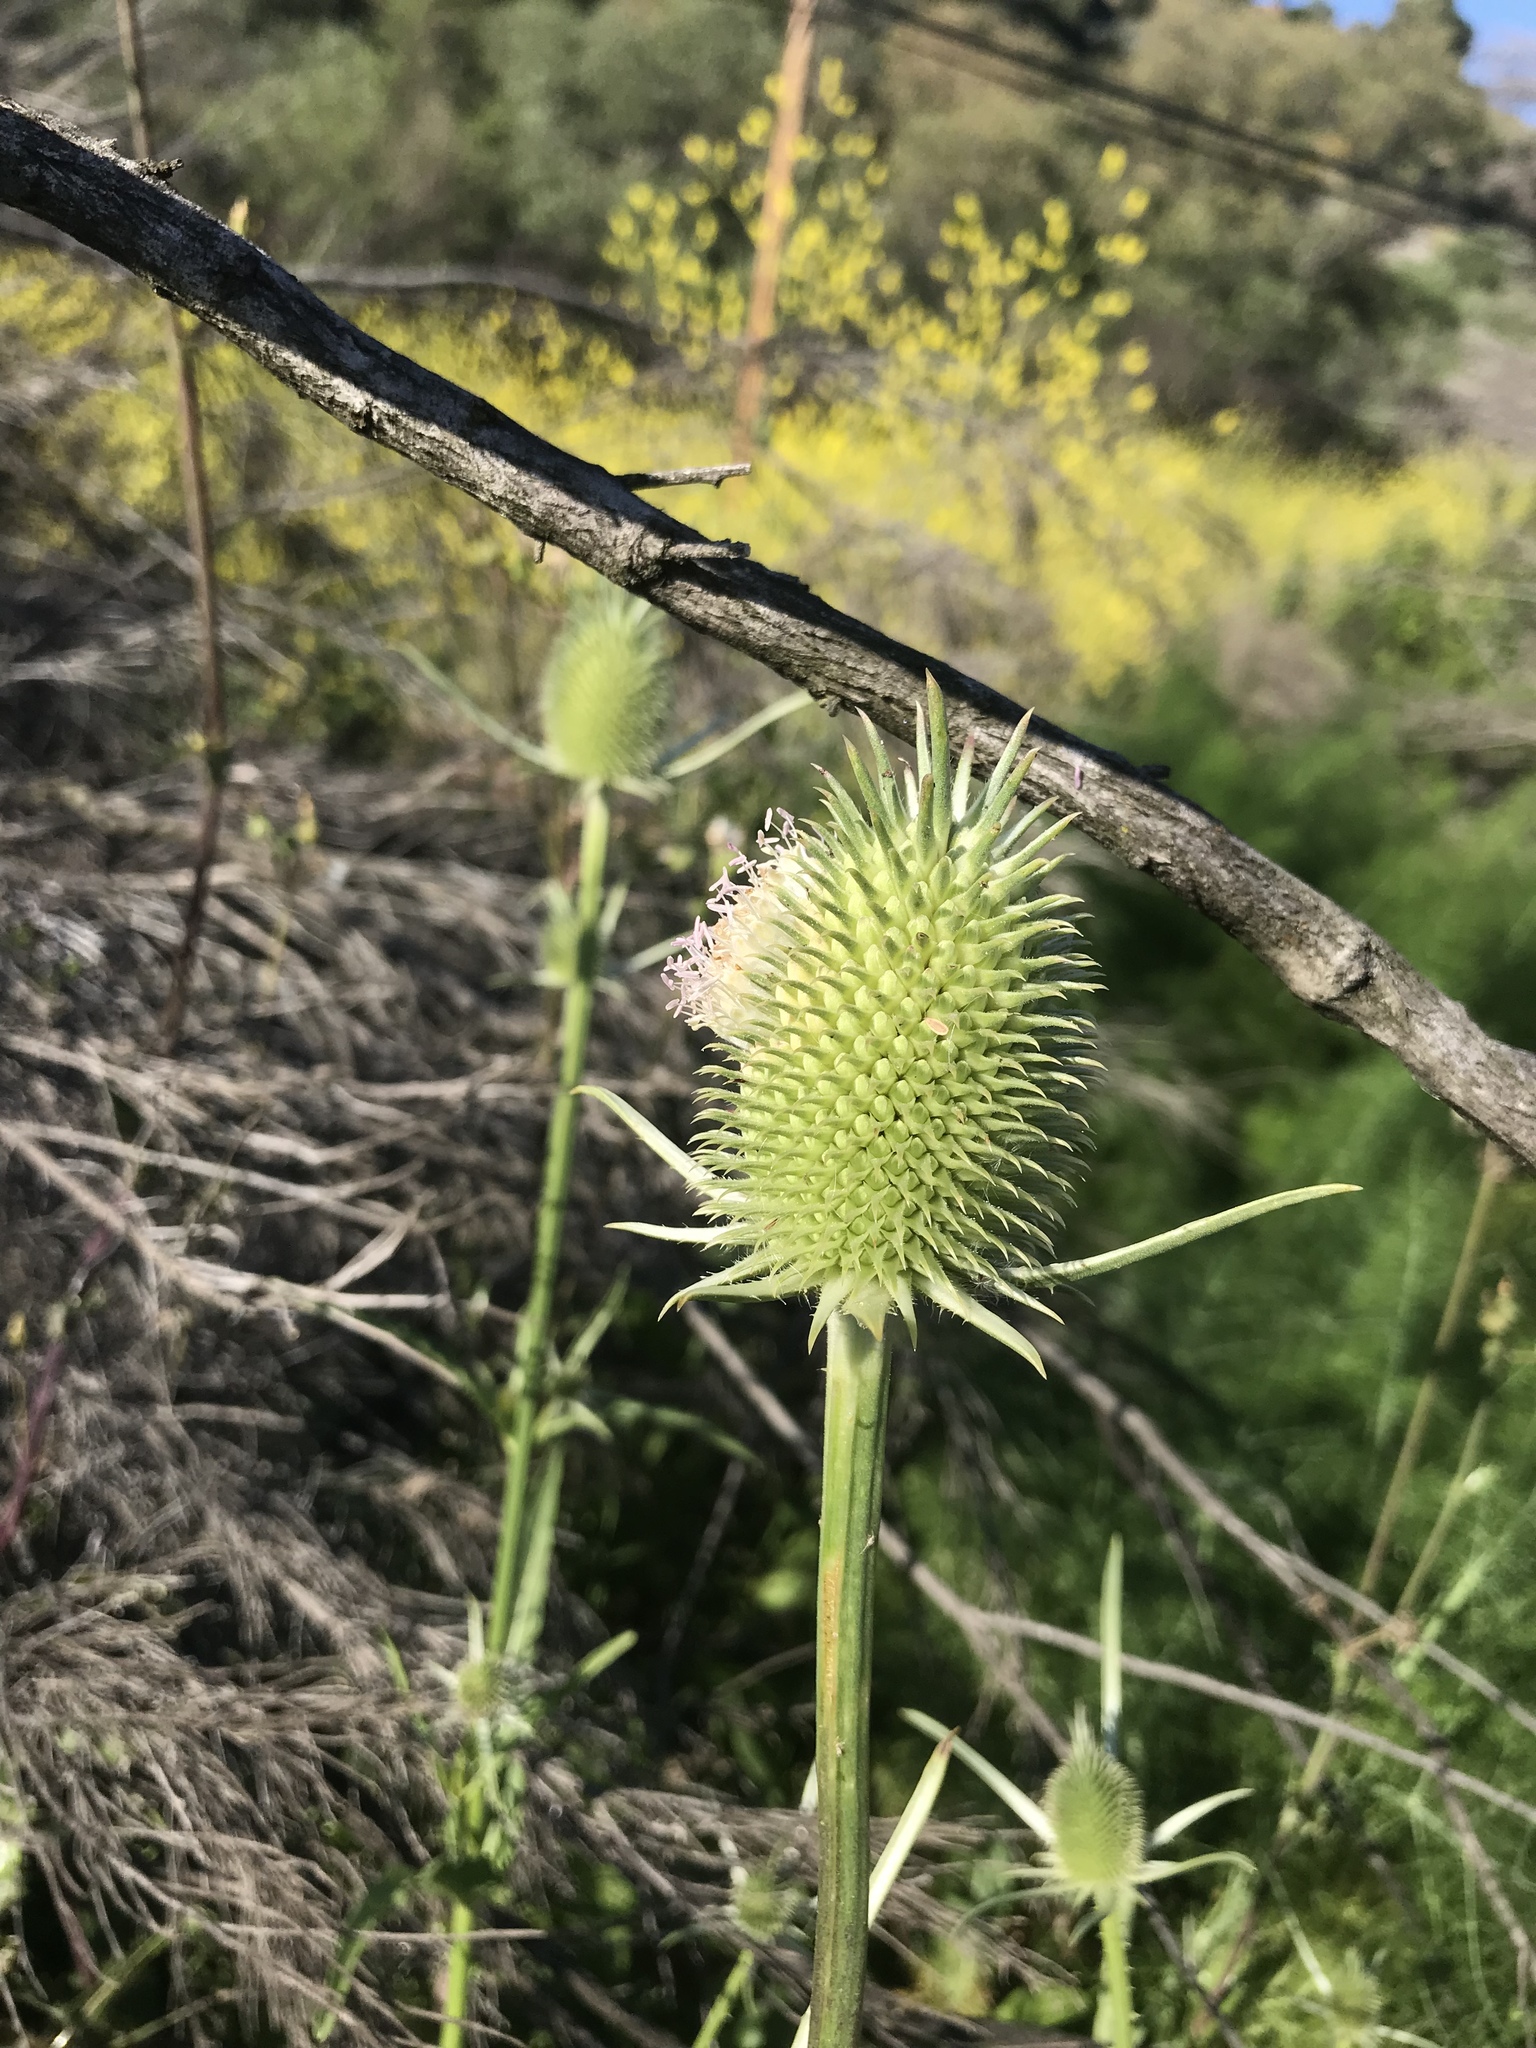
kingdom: Plantae
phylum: Tracheophyta
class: Magnoliopsida
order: Dipsacales
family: Caprifoliaceae
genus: Dipsacus
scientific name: Dipsacus sativus
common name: Fuller's teasel
